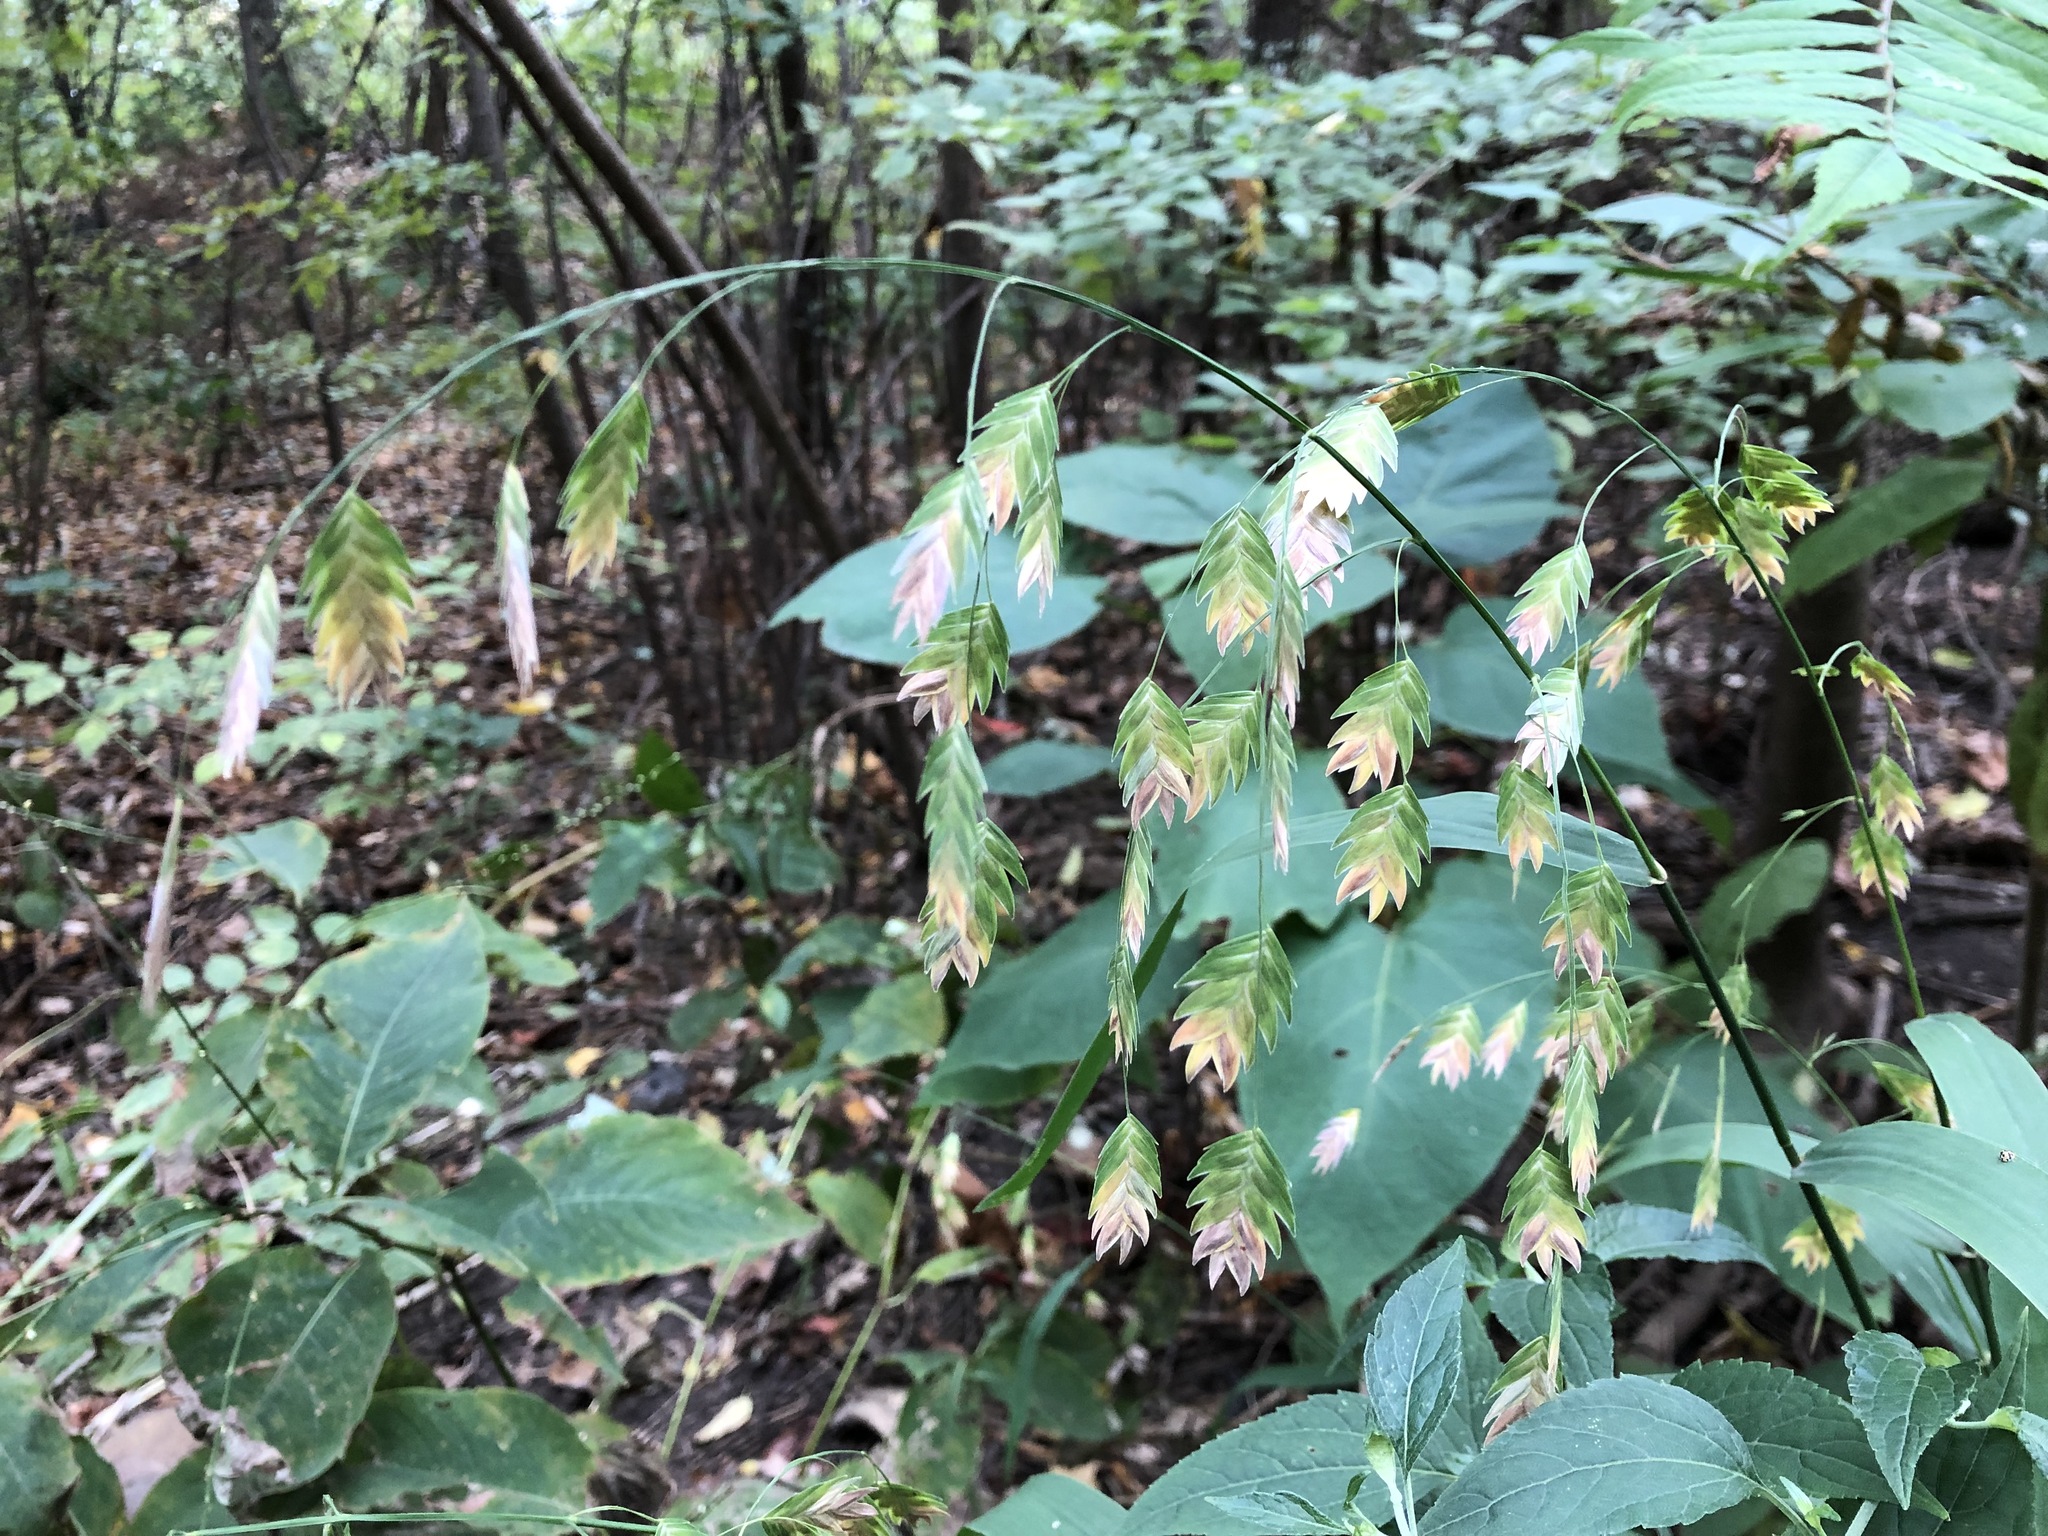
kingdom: Plantae
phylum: Tracheophyta
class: Liliopsida
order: Poales
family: Poaceae
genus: Chasmanthium
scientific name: Chasmanthium latifolium
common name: Broad-leaved chasmanthium
